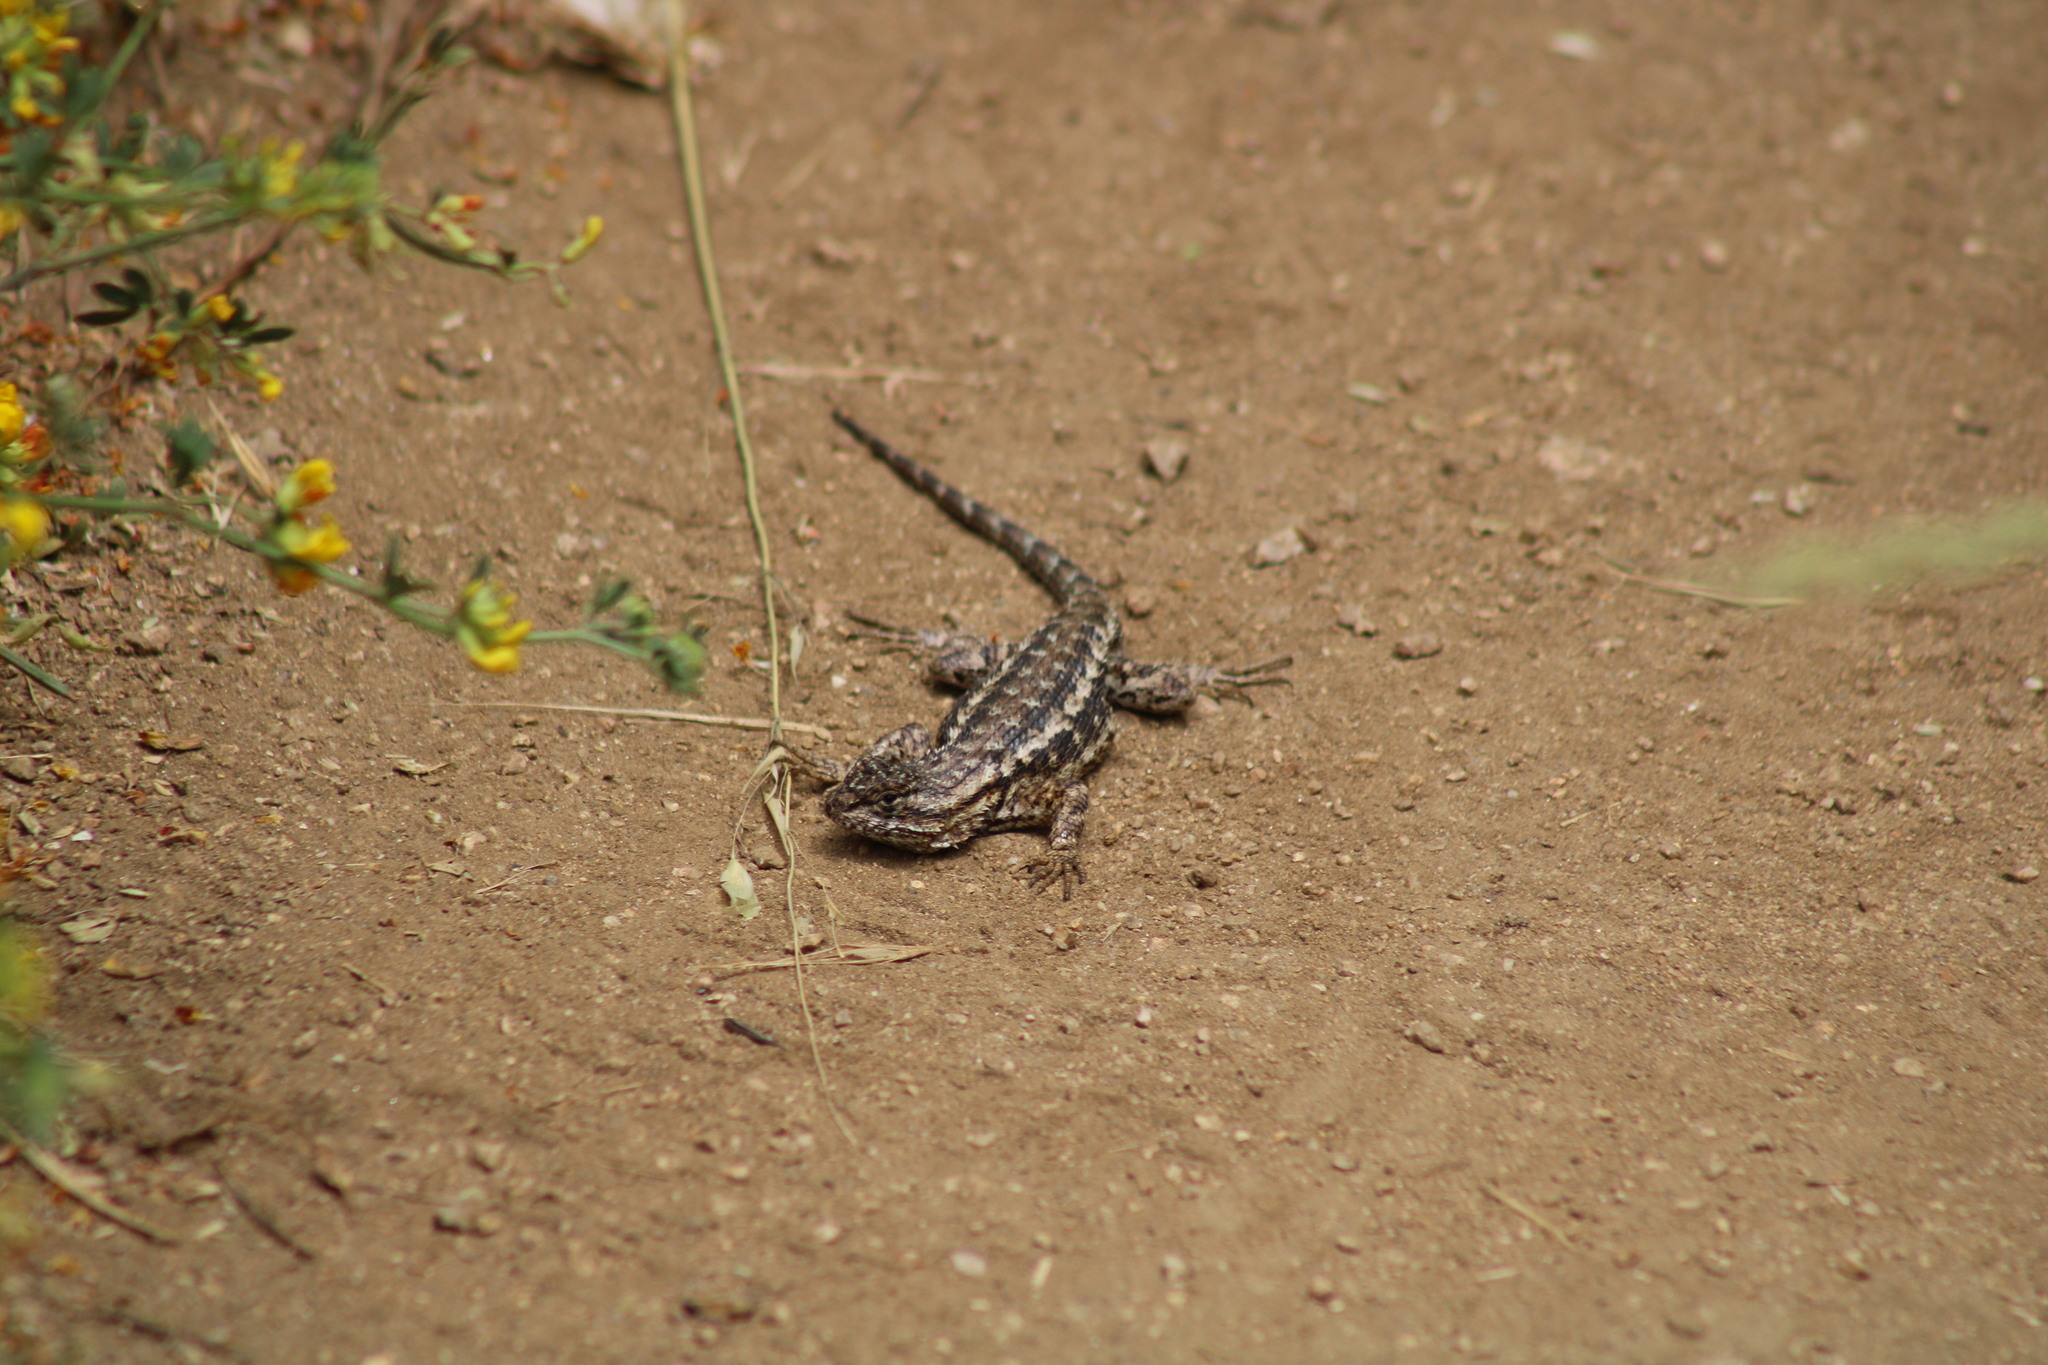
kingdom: Animalia
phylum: Chordata
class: Squamata
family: Phrynosomatidae
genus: Sceloporus
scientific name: Sceloporus occidentalis
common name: Western fence lizard
